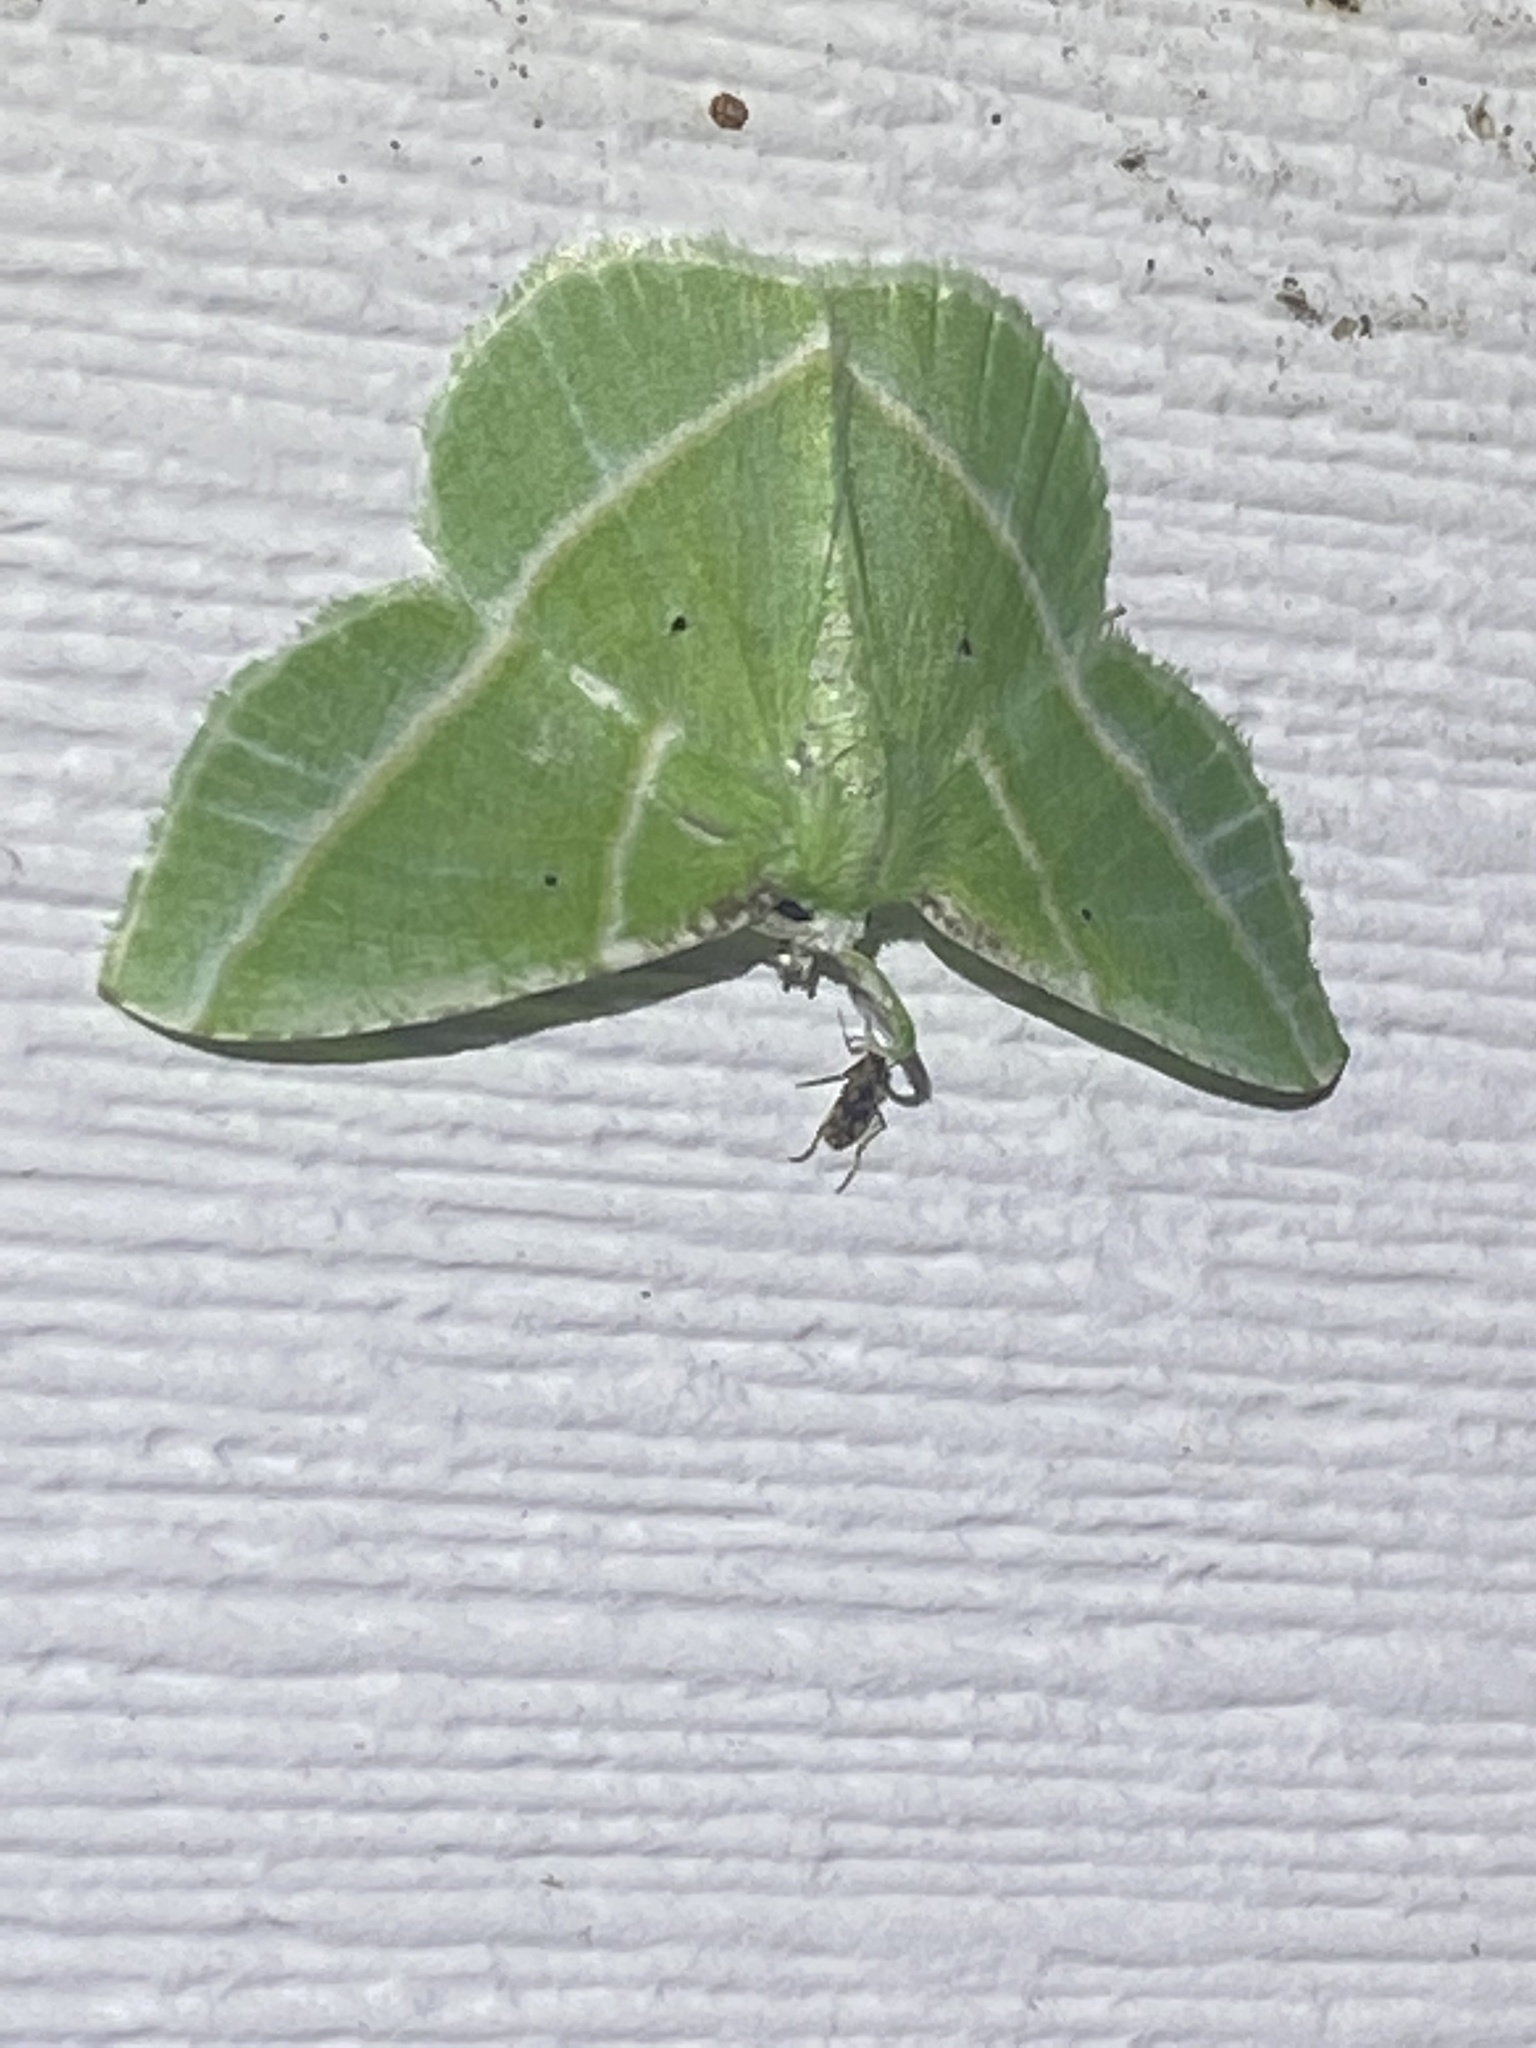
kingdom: Animalia
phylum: Arthropoda
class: Insecta
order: Lepidoptera
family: Geometridae
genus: Dichorda
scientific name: Dichorda iridaria
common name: Showy emerald
